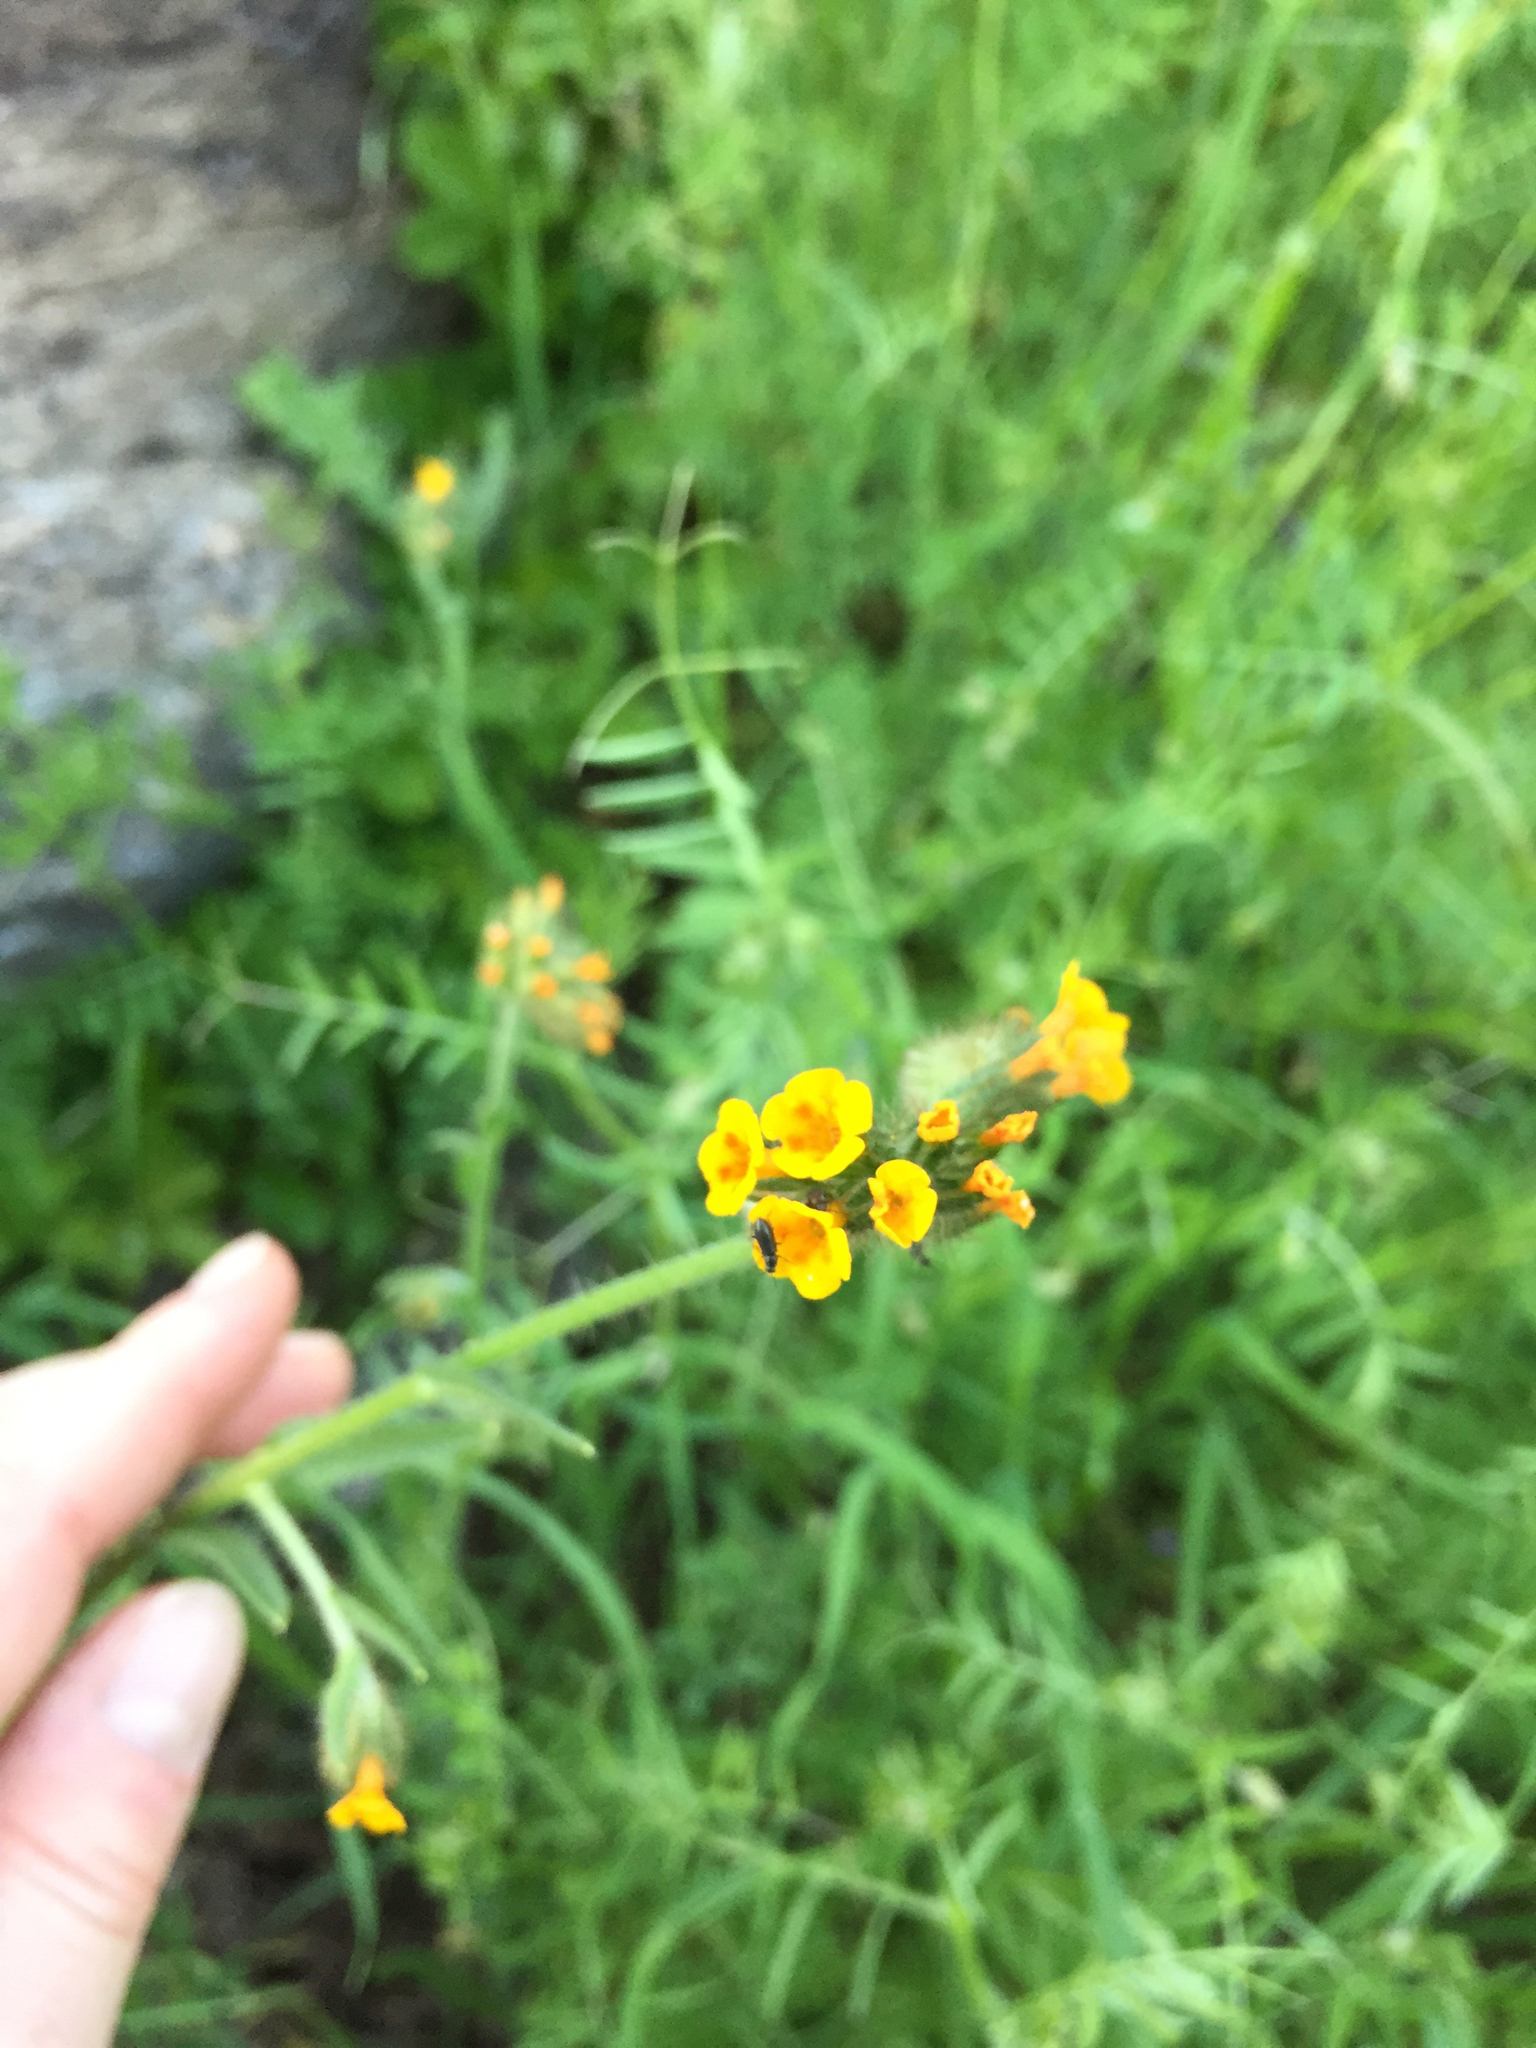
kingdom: Plantae
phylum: Tracheophyta
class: Magnoliopsida
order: Boraginales
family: Boraginaceae
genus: Amsinckia
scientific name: Amsinckia menziesii
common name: Menzies' fiddleneck
